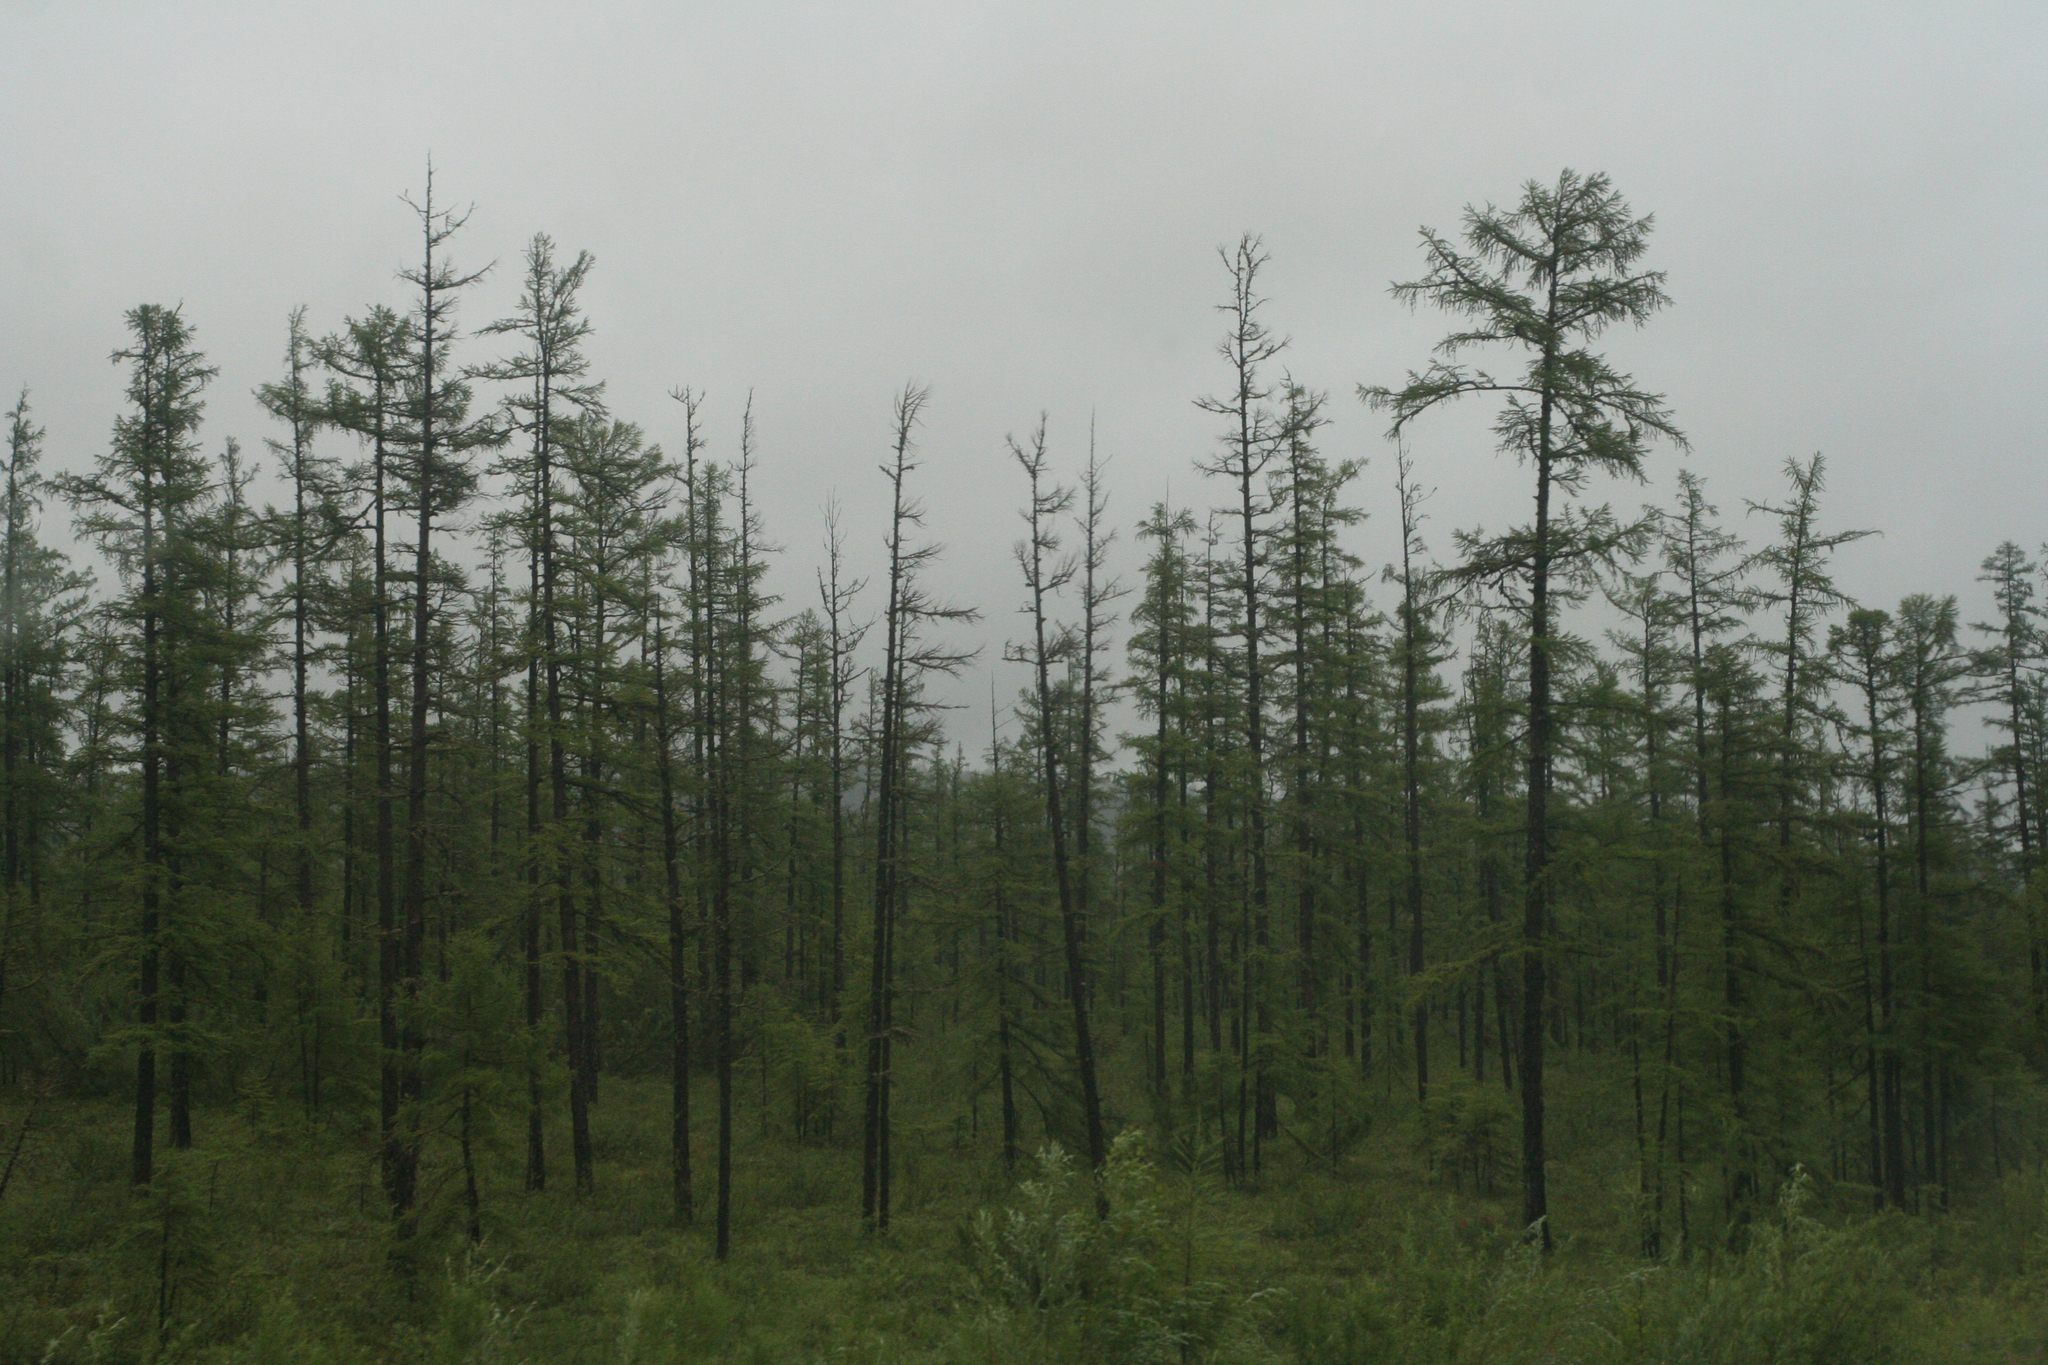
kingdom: Plantae
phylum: Tracheophyta
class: Pinopsida
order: Pinales
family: Pinaceae
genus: Larix
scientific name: Larix gmelinii
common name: Dahurian larch
